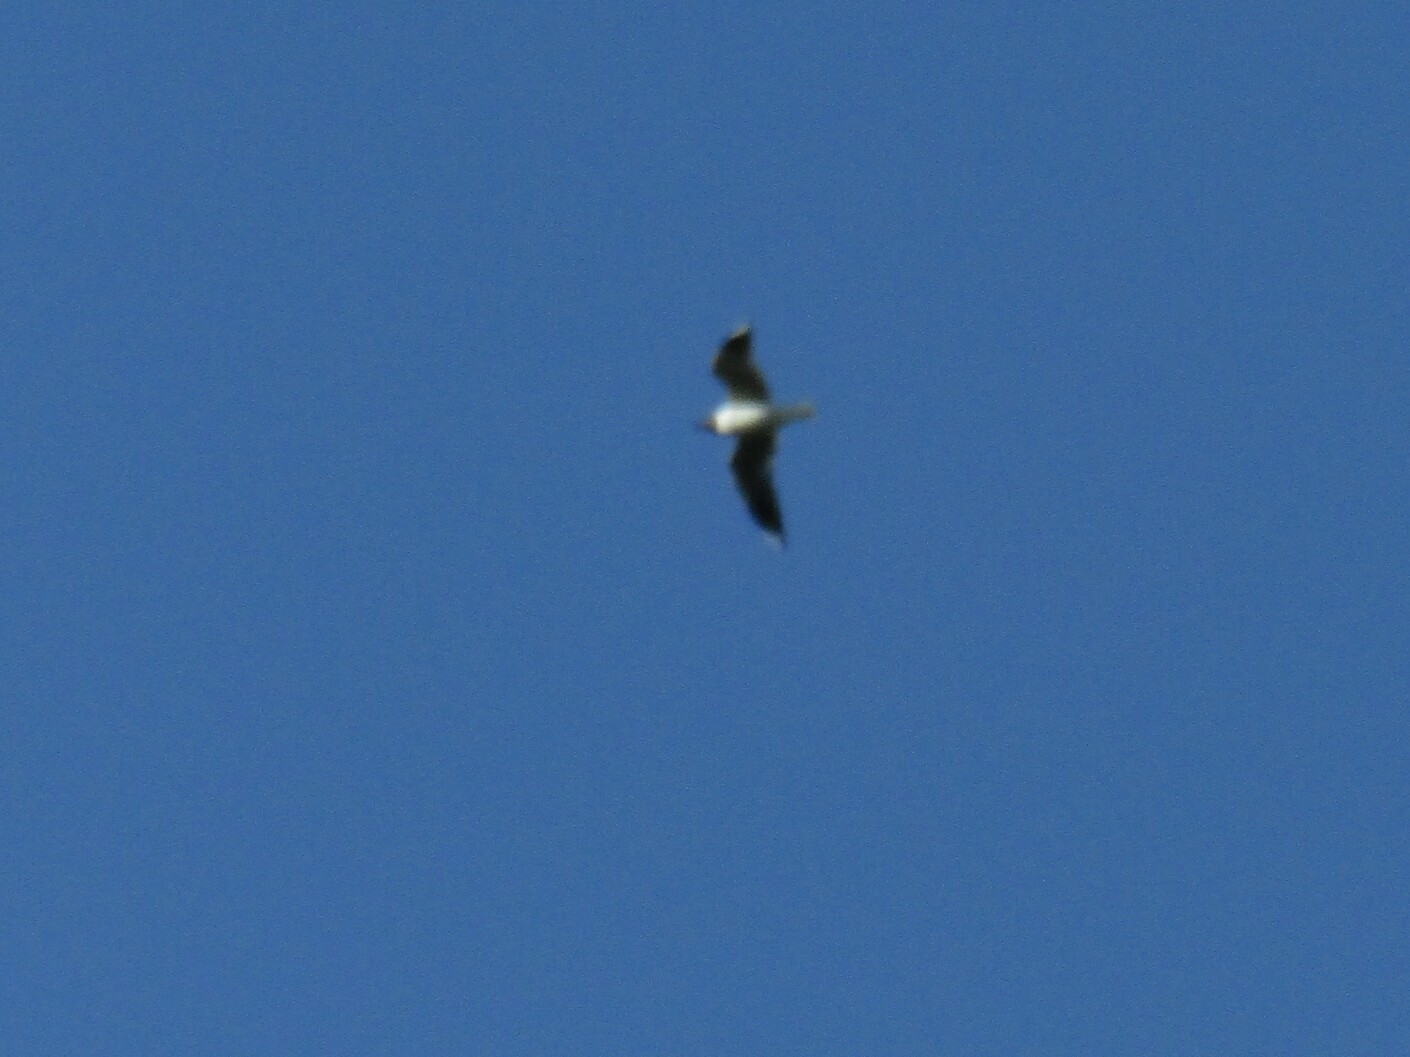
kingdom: Animalia
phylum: Chordata
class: Aves
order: Charadriiformes
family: Laridae
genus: Chroicocephalus
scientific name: Chroicocephalus maculipennis
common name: Brown-hooded gull
